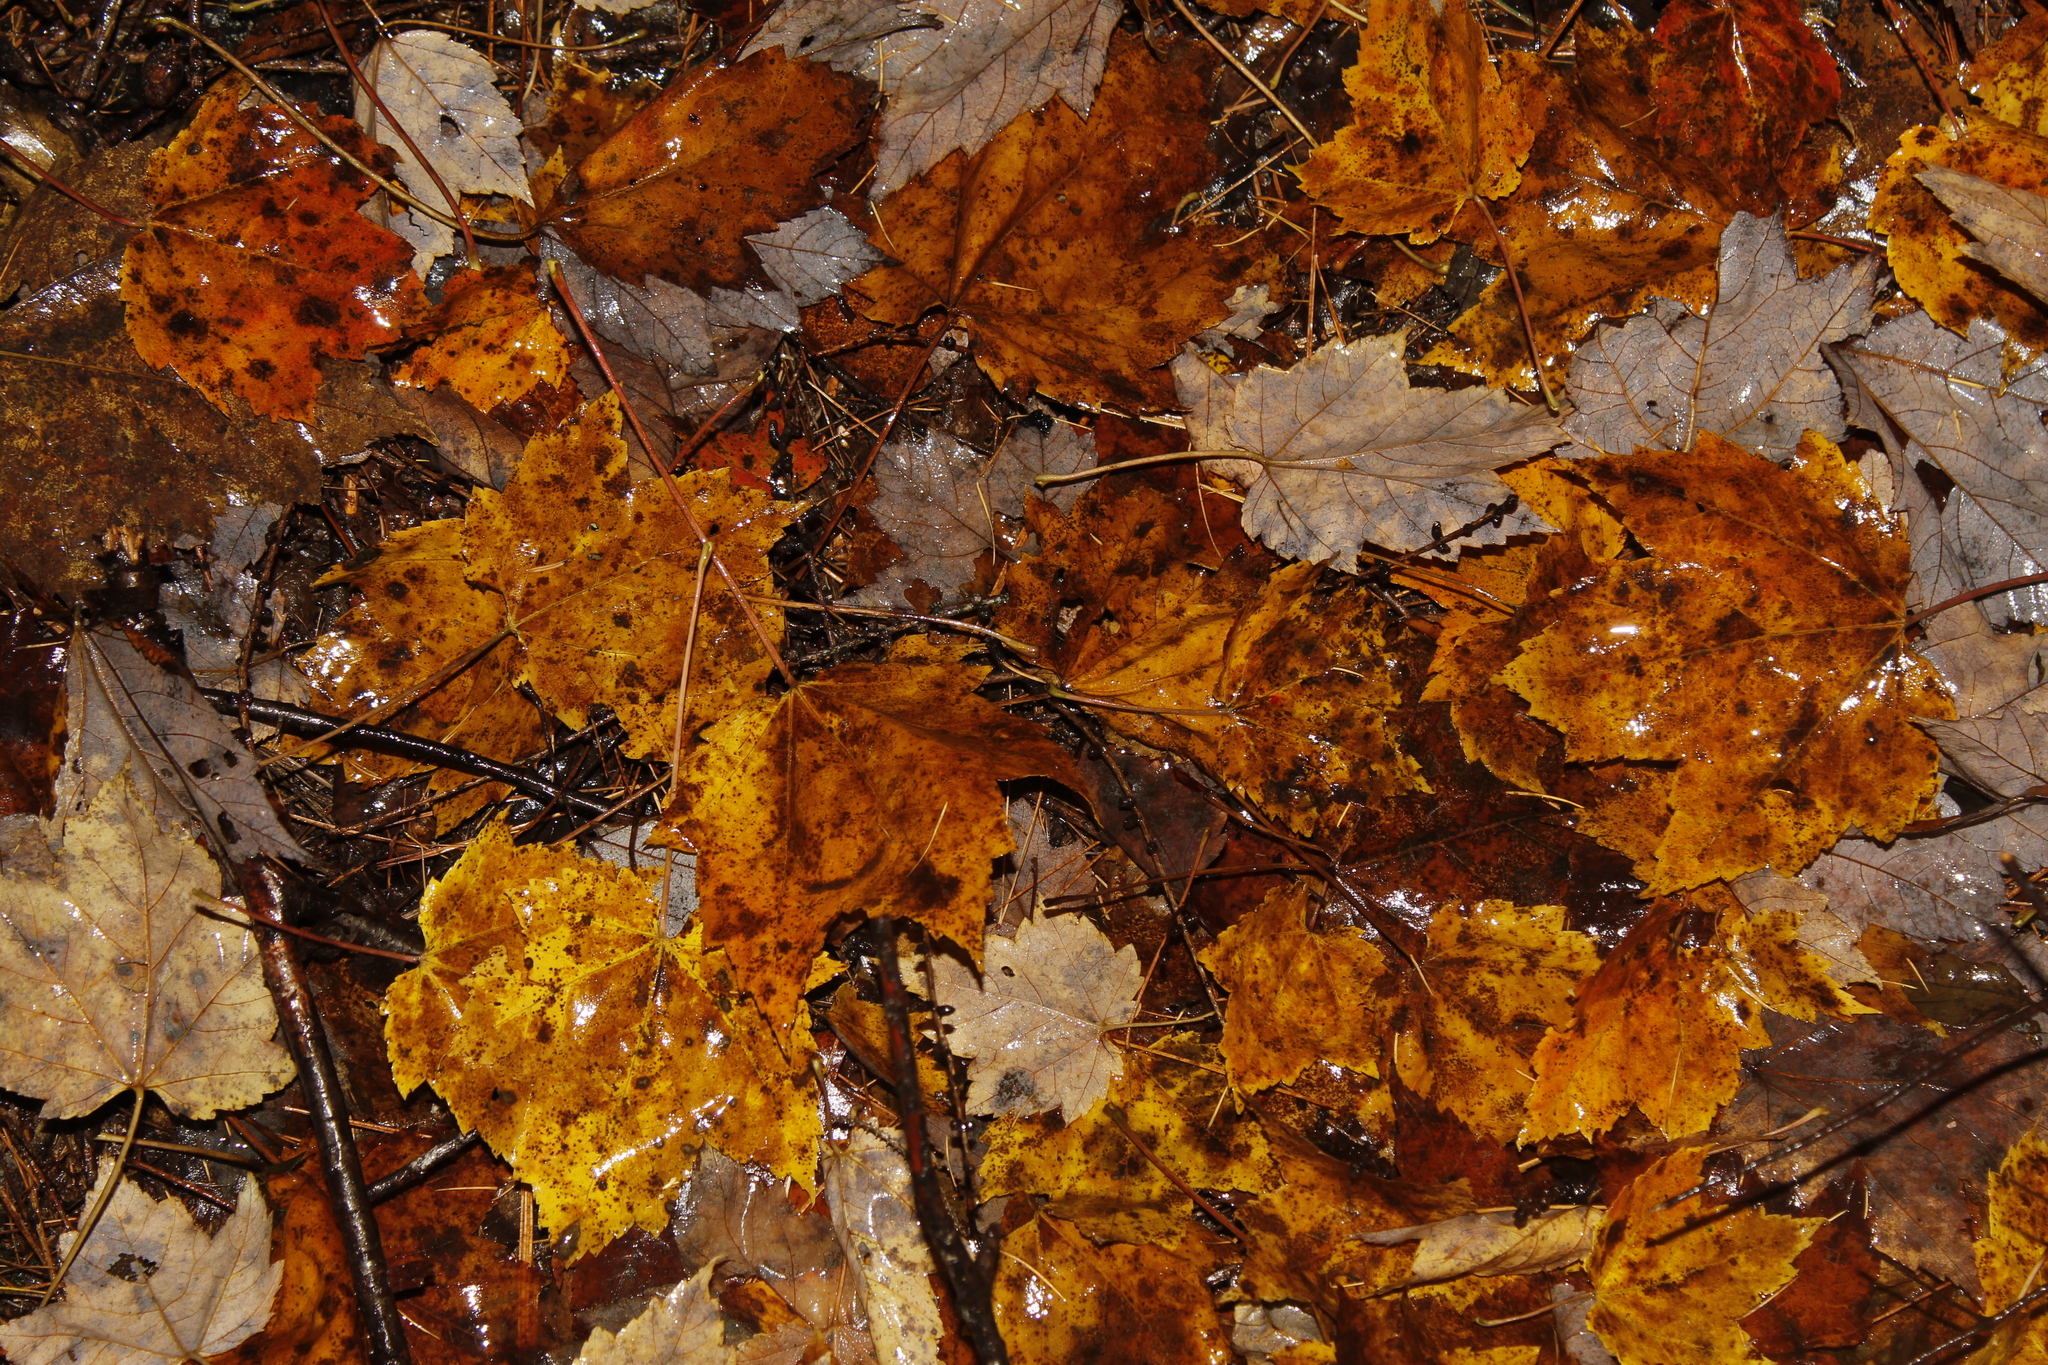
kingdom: Plantae
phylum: Tracheophyta
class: Magnoliopsida
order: Sapindales
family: Sapindaceae
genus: Acer
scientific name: Acer rubrum
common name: Red maple
